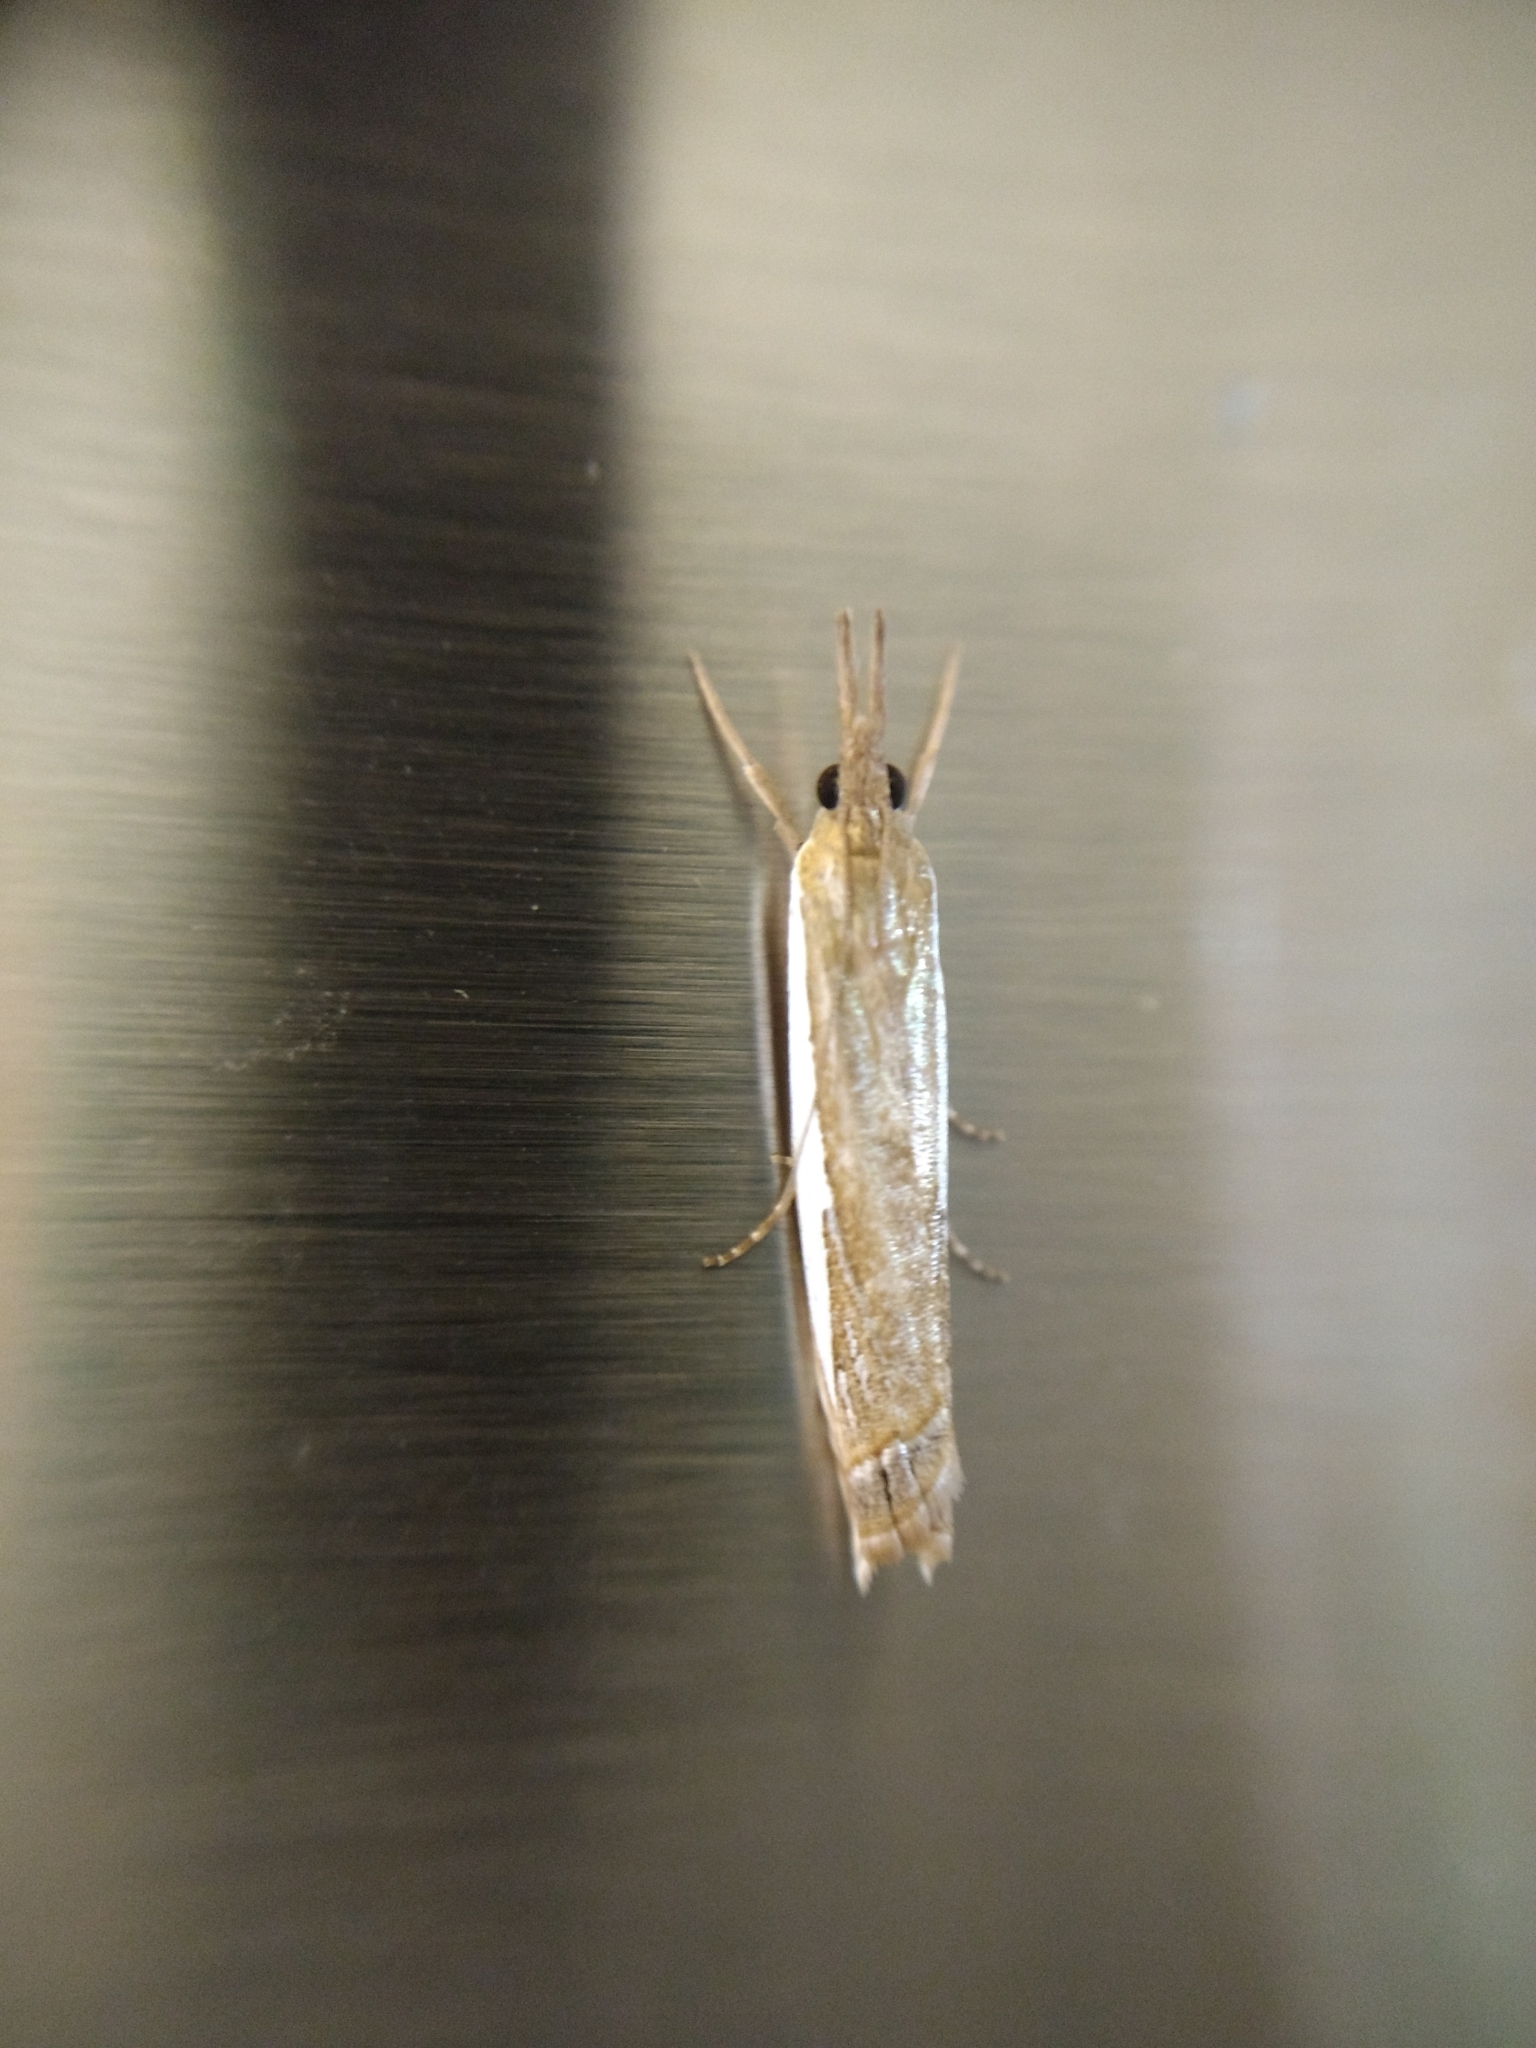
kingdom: Animalia
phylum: Arthropoda
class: Insecta
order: Lepidoptera
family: Crambidae
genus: Crambus
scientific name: Crambus
